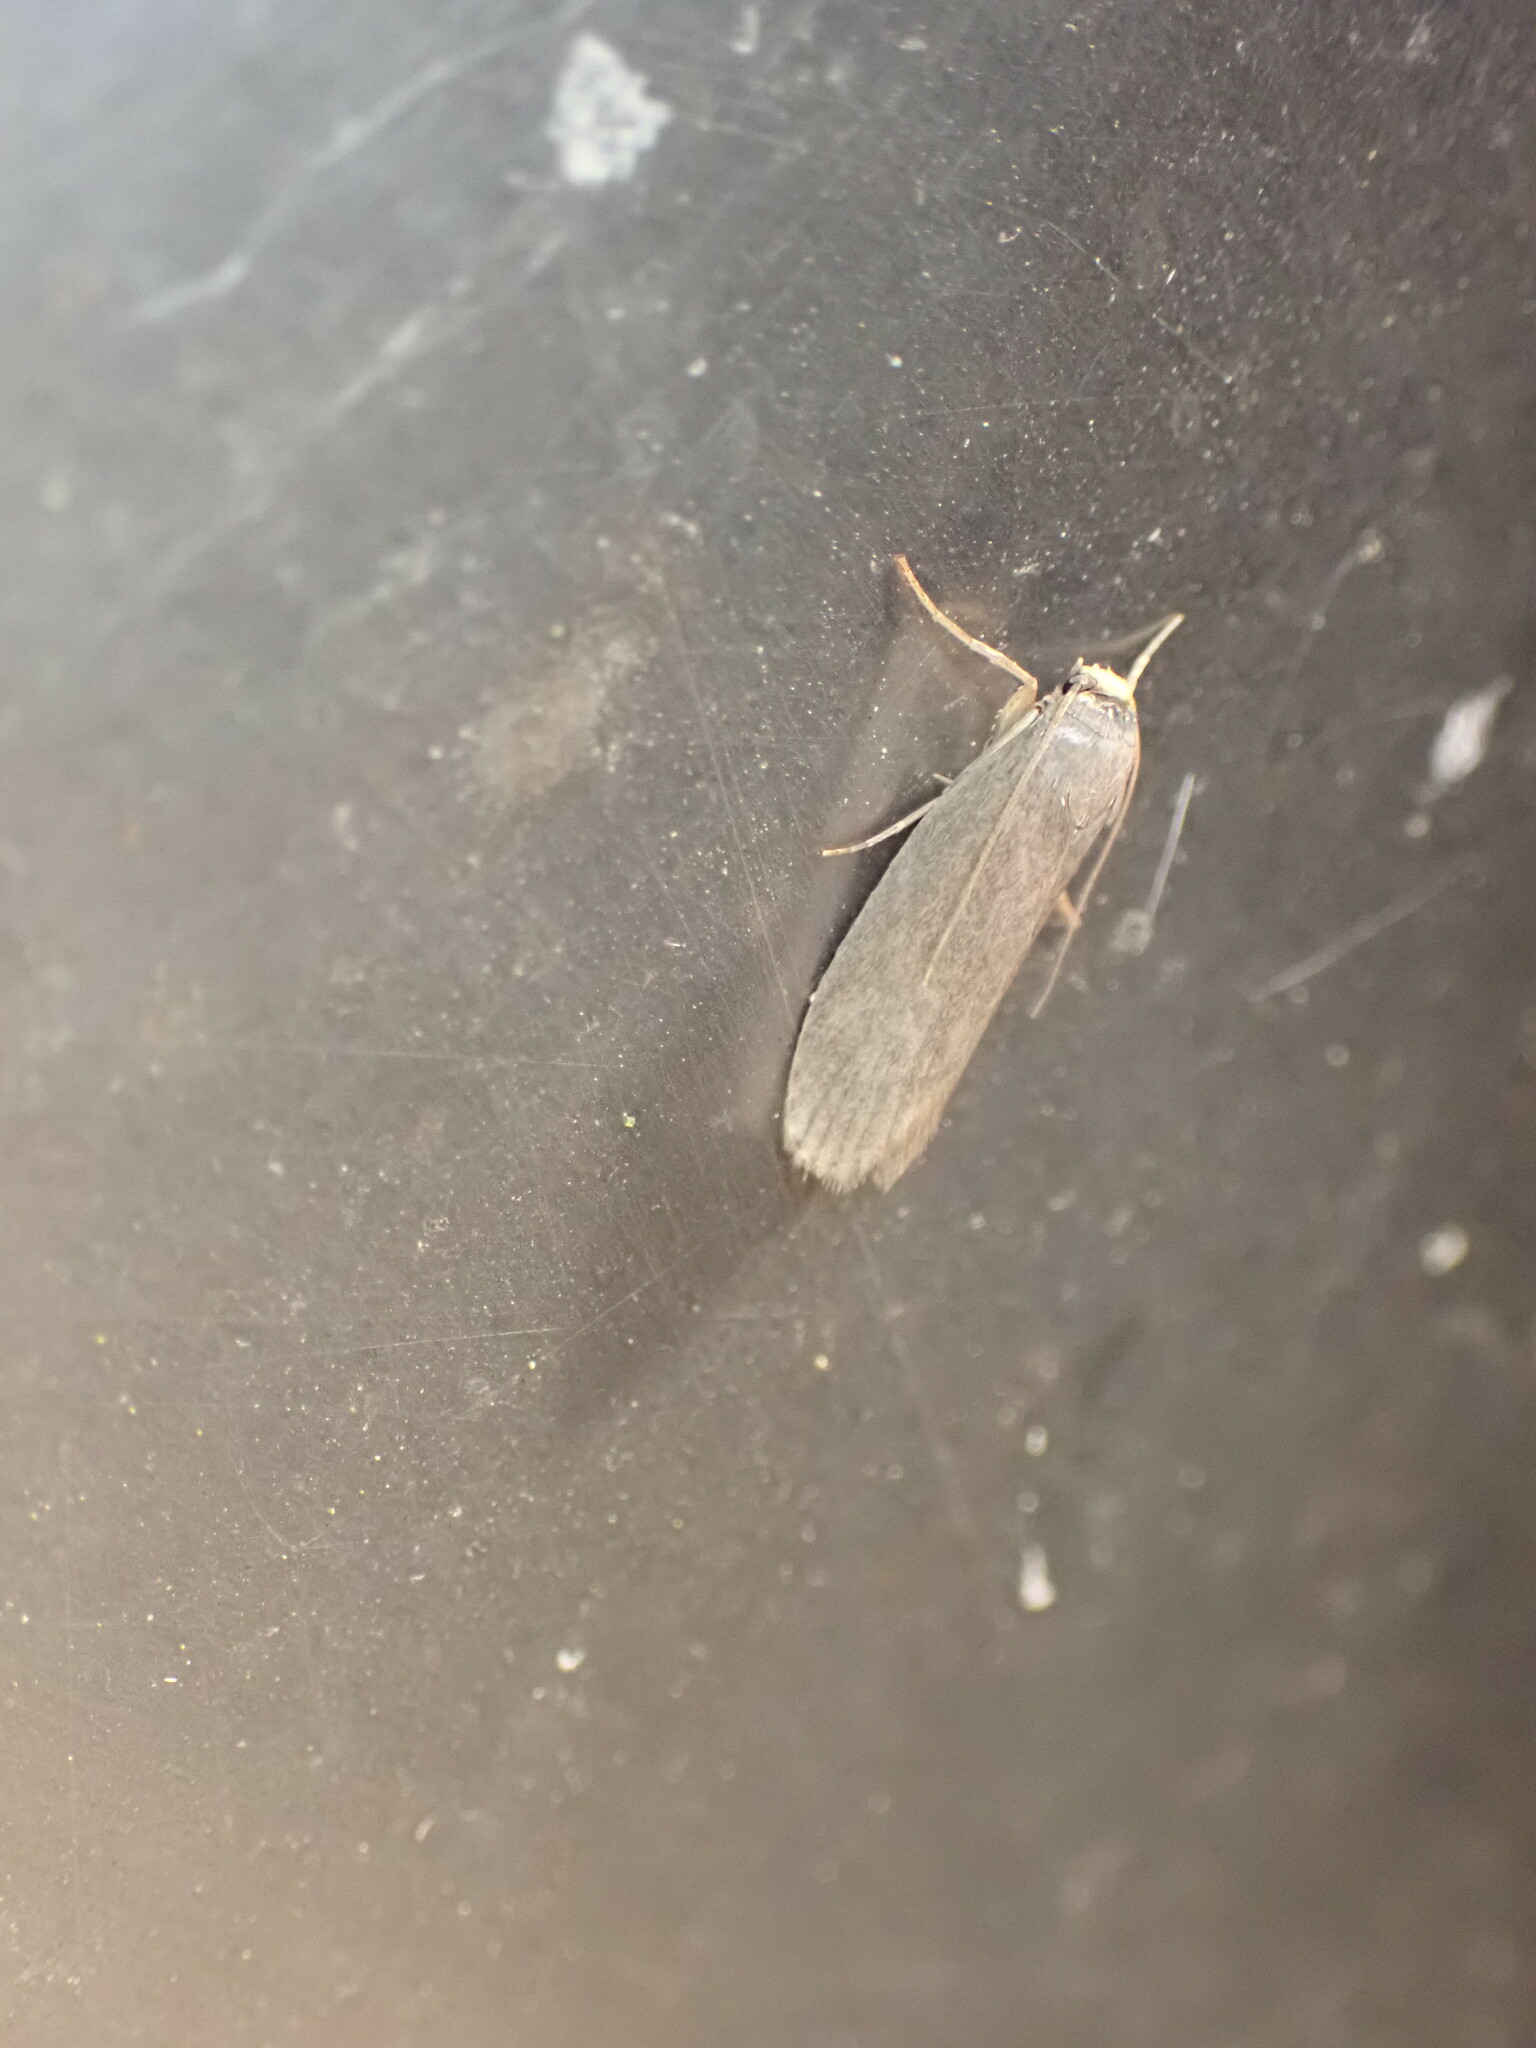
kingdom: Animalia
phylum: Arthropoda
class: Insecta
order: Lepidoptera
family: Pyralidae
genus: Achroia
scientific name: Achroia grisella
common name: Lesser wax moth
